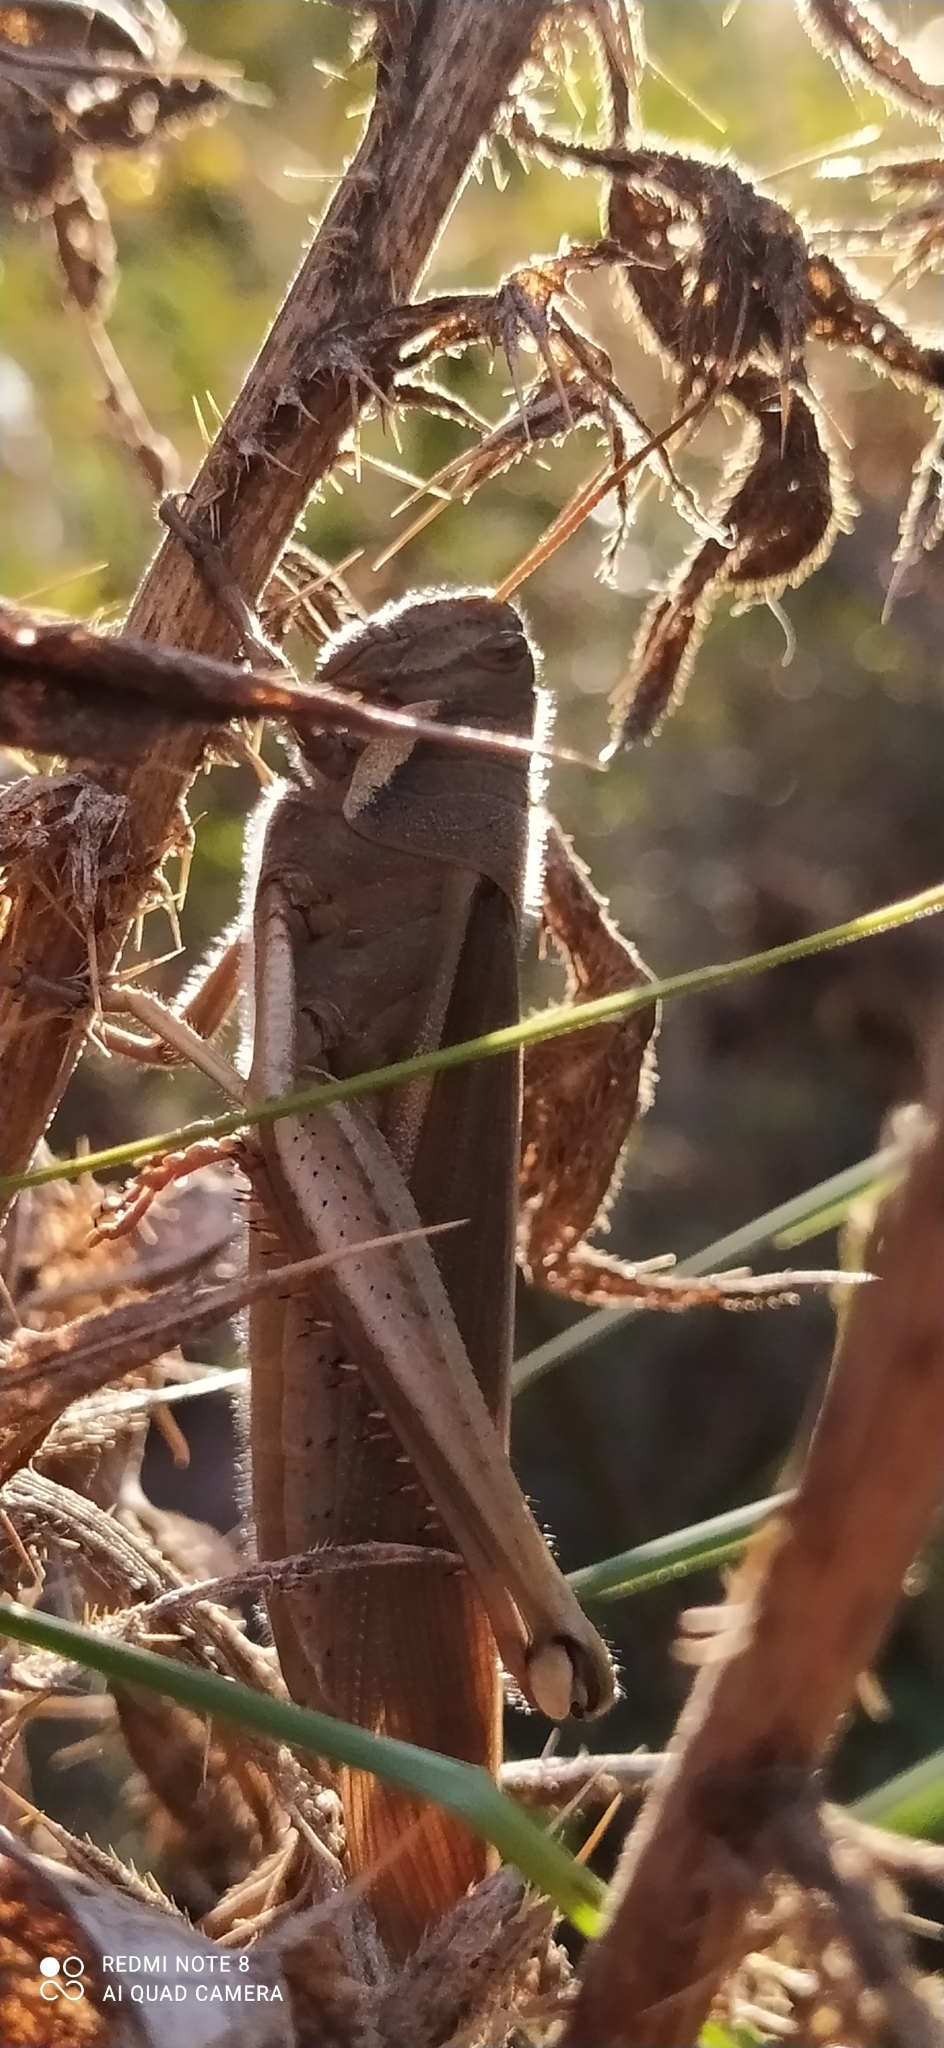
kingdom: Animalia
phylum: Arthropoda
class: Insecta
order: Orthoptera
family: Acrididae
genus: Schistocerca
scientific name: Schistocerca flavofasciata
